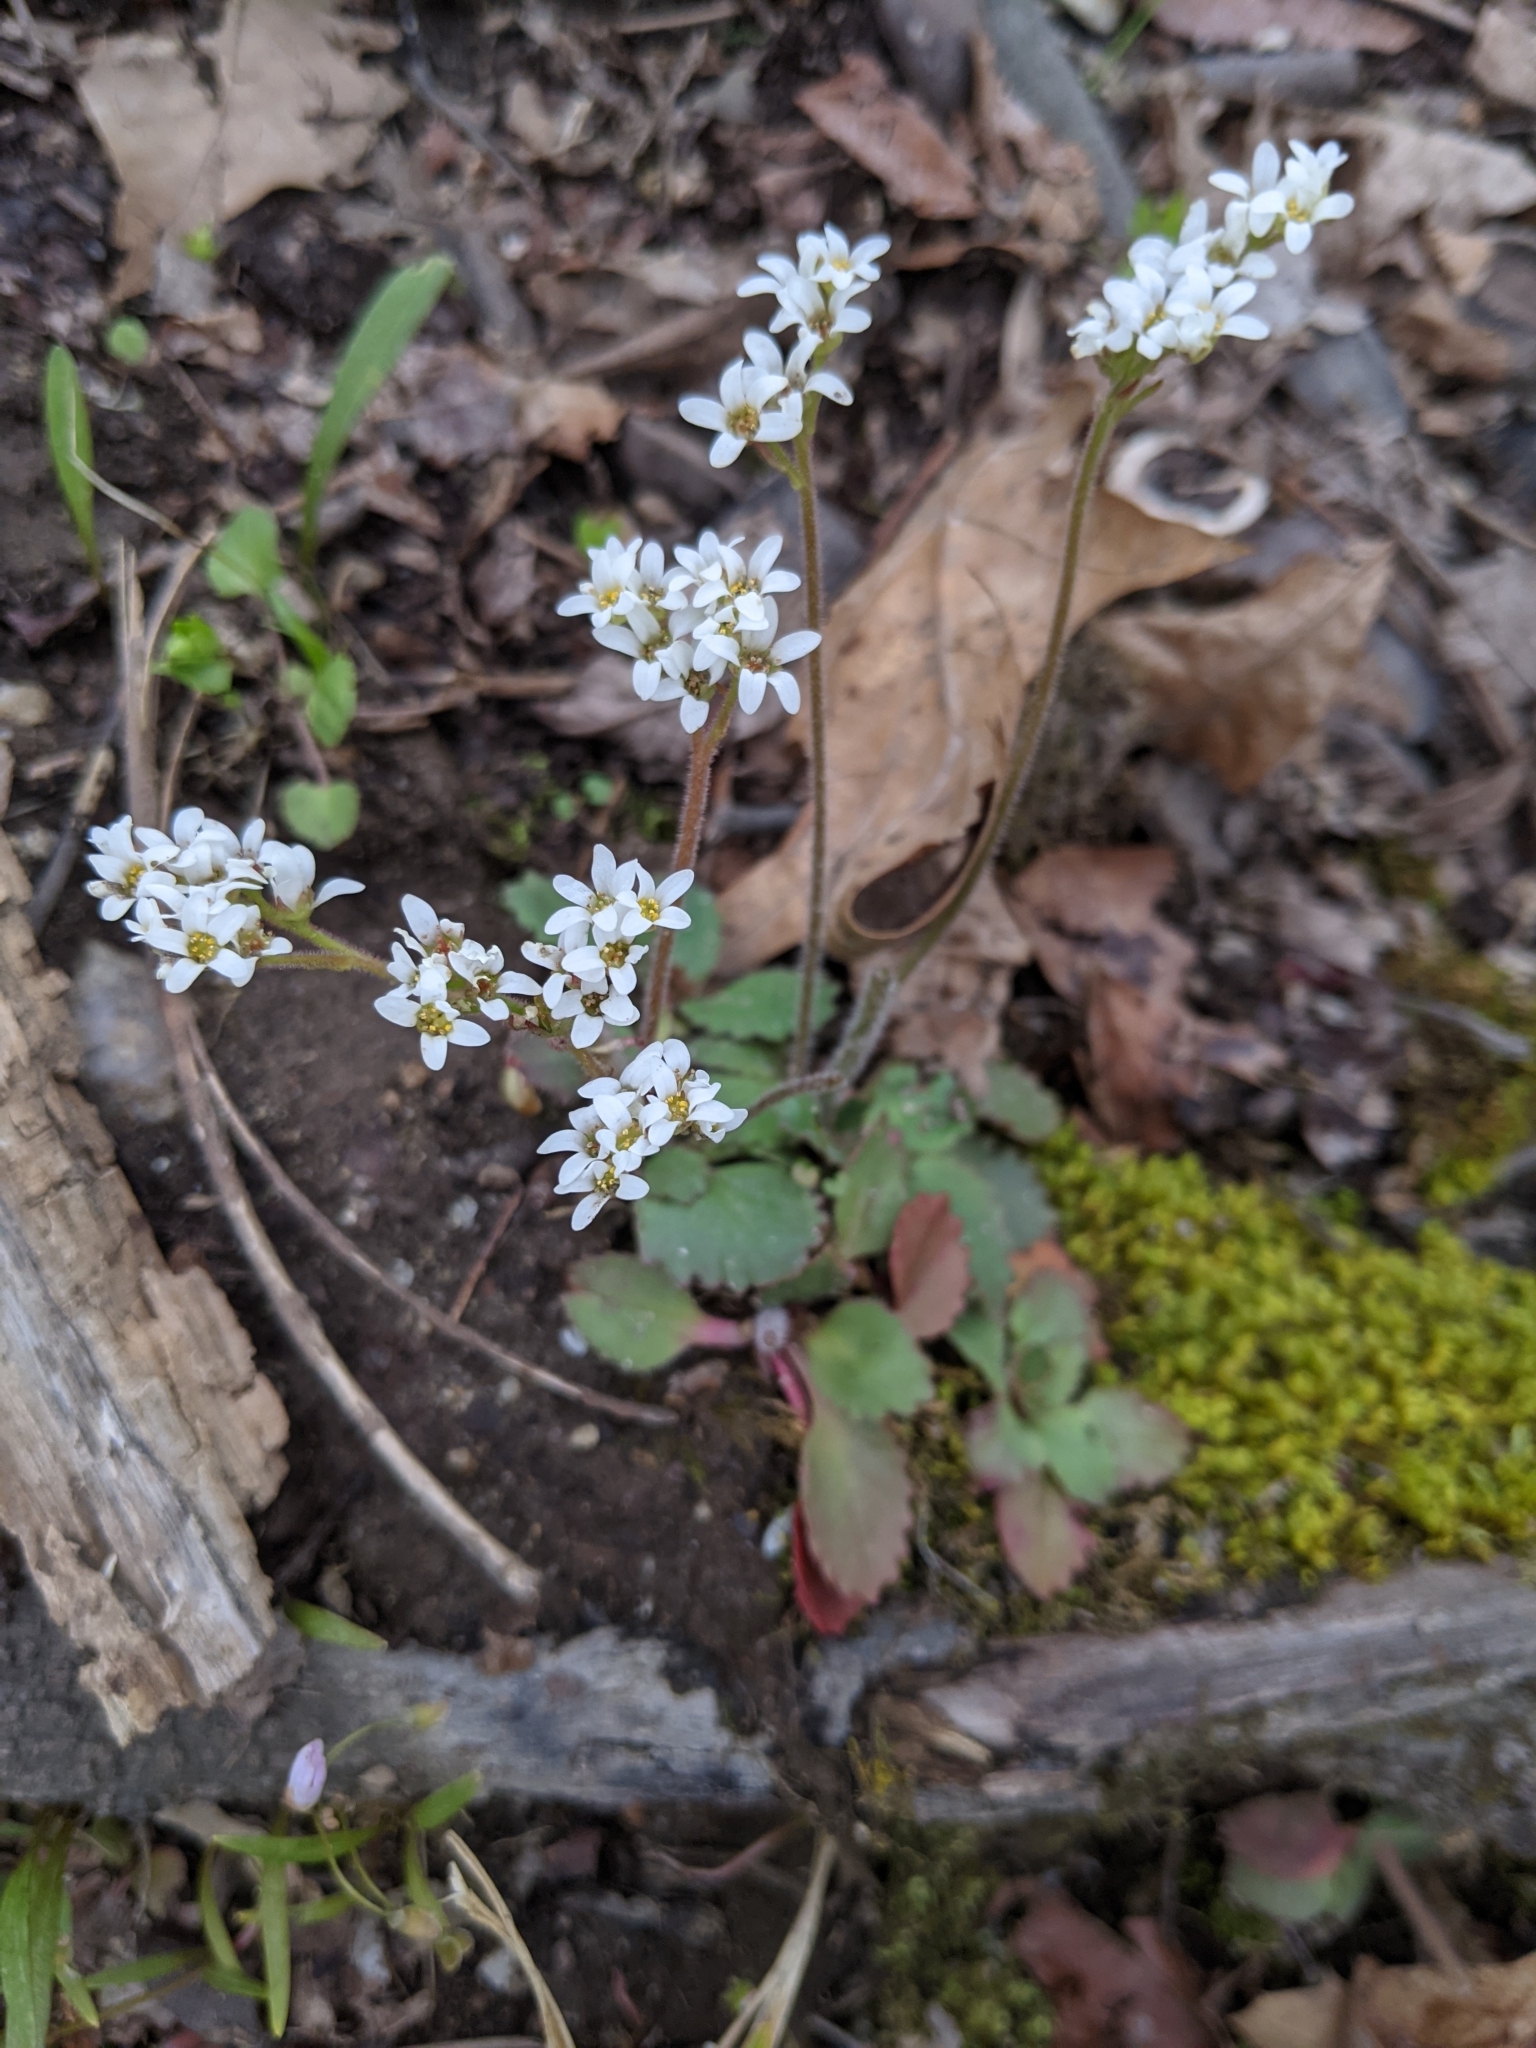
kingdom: Plantae
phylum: Tracheophyta
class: Magnoliopsida
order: Saxifragales
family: Saxifragaceae
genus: Micranthes
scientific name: Micranthes virginiensis
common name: Early saxifrage
